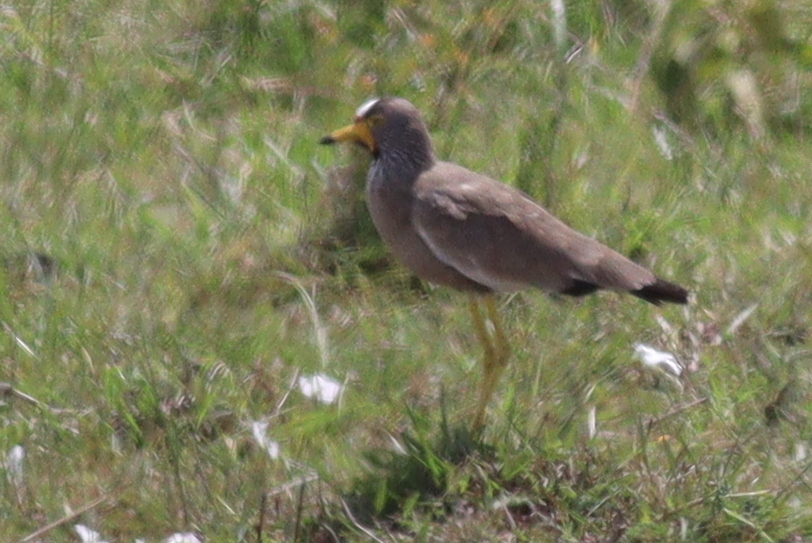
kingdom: Animalia
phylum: Chordata
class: Aves
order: Charadriiformes
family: Charadriidae
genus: Vanellus
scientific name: Vanellus senegallus
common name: African wattled lapwing
